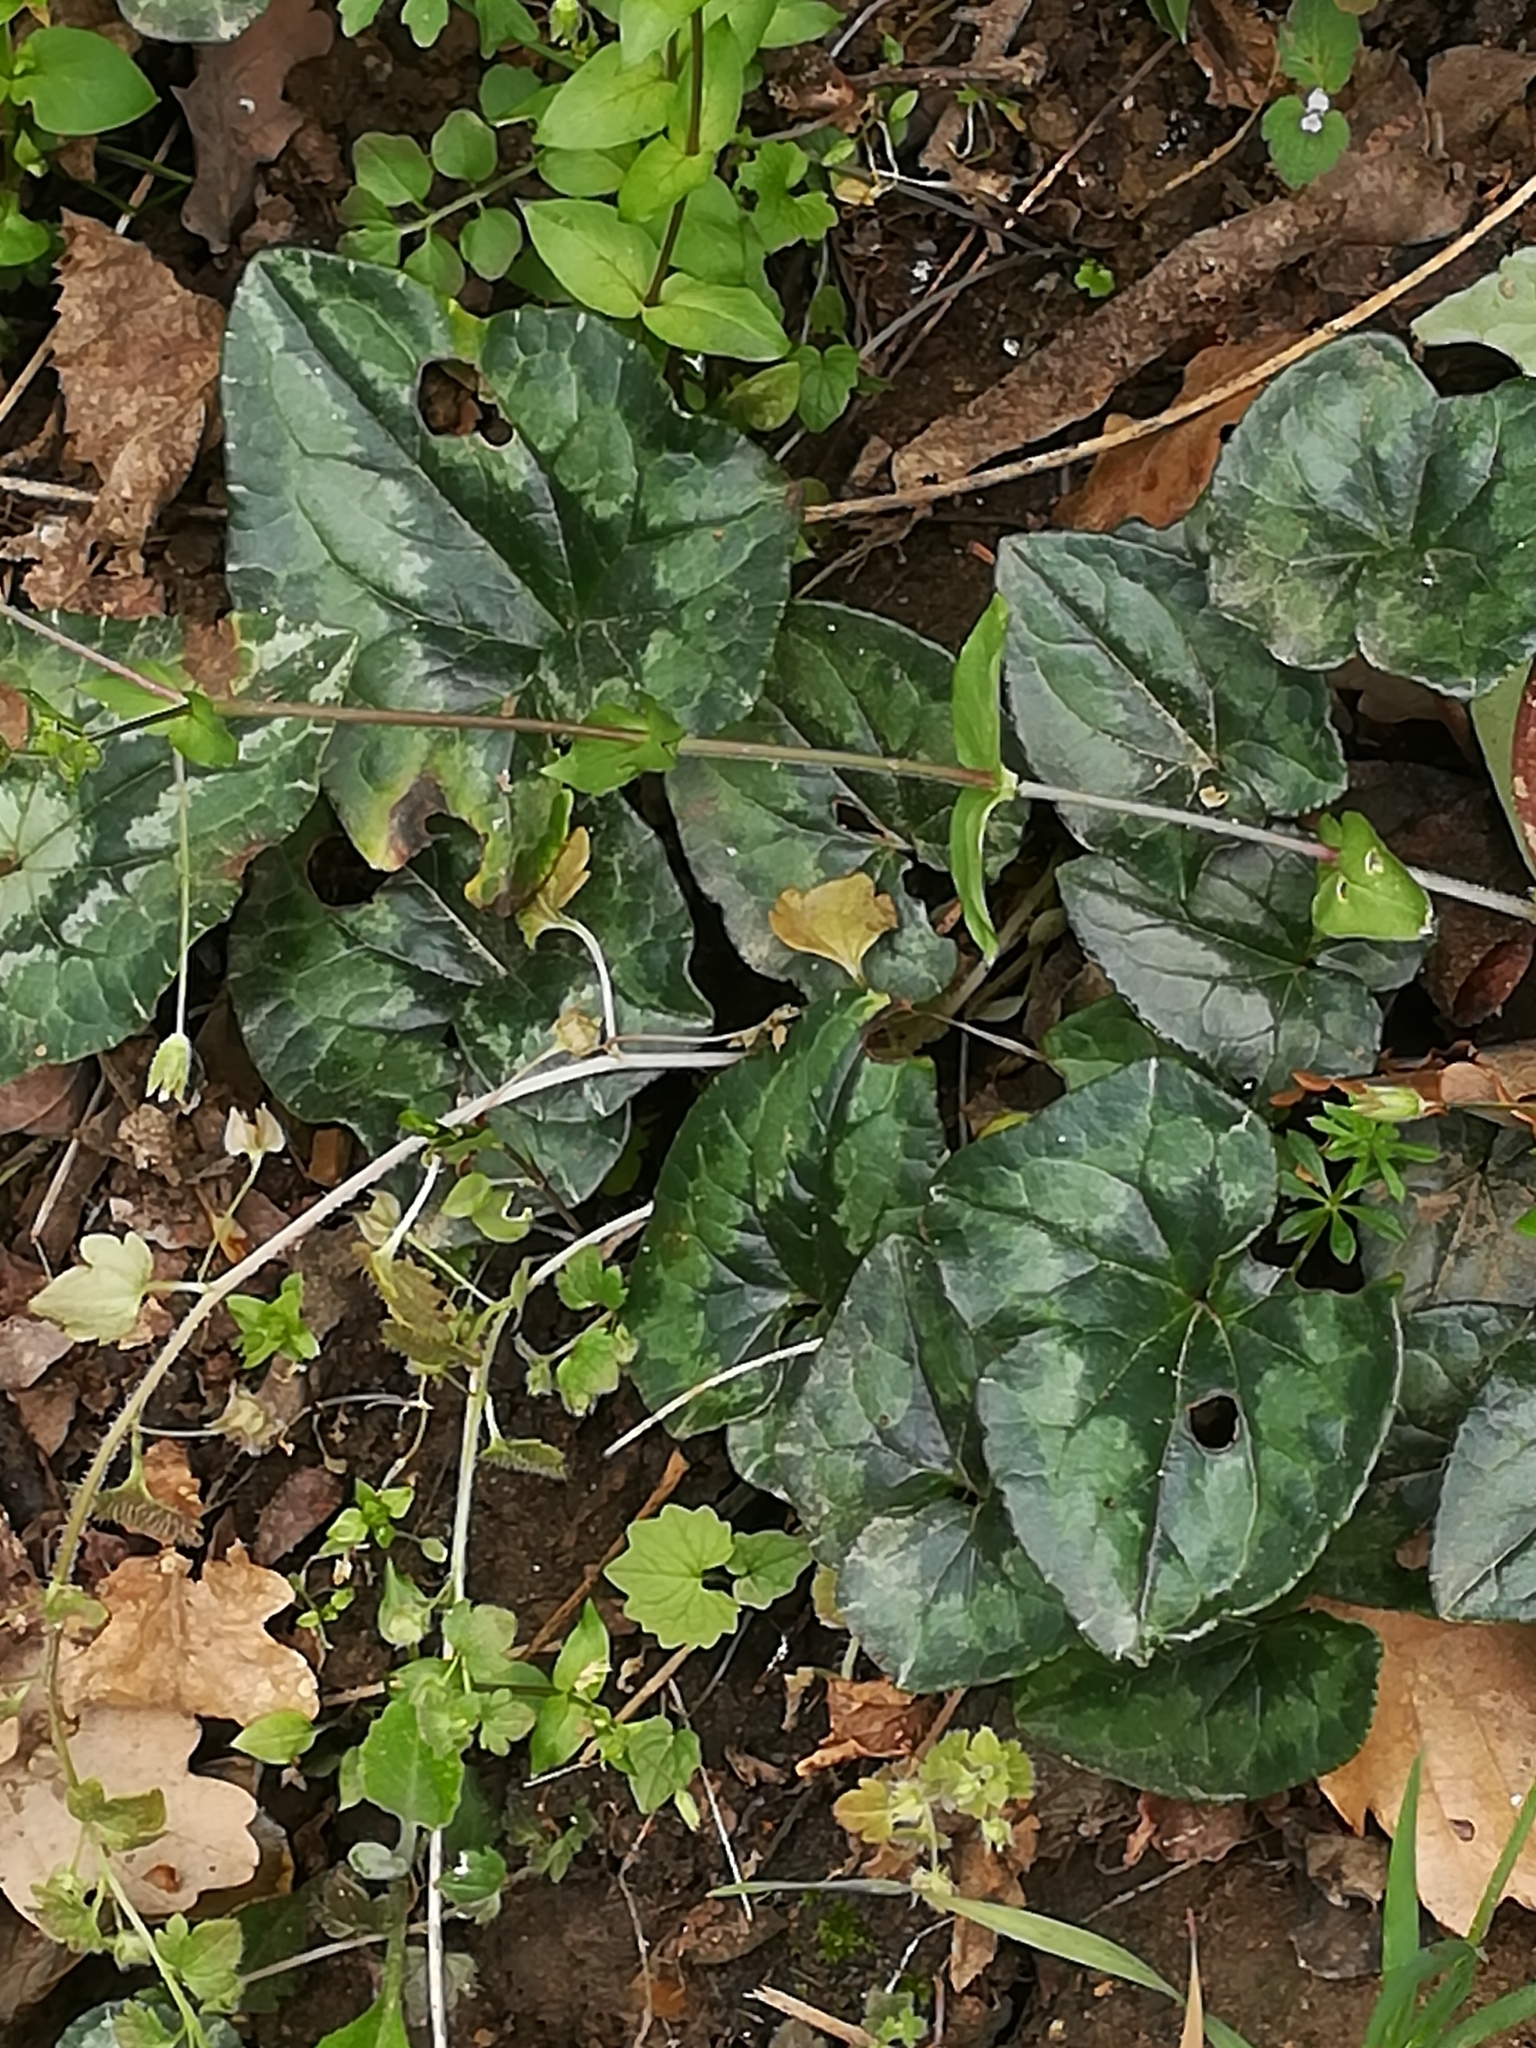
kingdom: Plantae
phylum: Tracheophyta
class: Magnoliopsida
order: Ericales
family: Primulaceae
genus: Cyclamen
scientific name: Cyclamen hederifolium
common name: Sowbread
